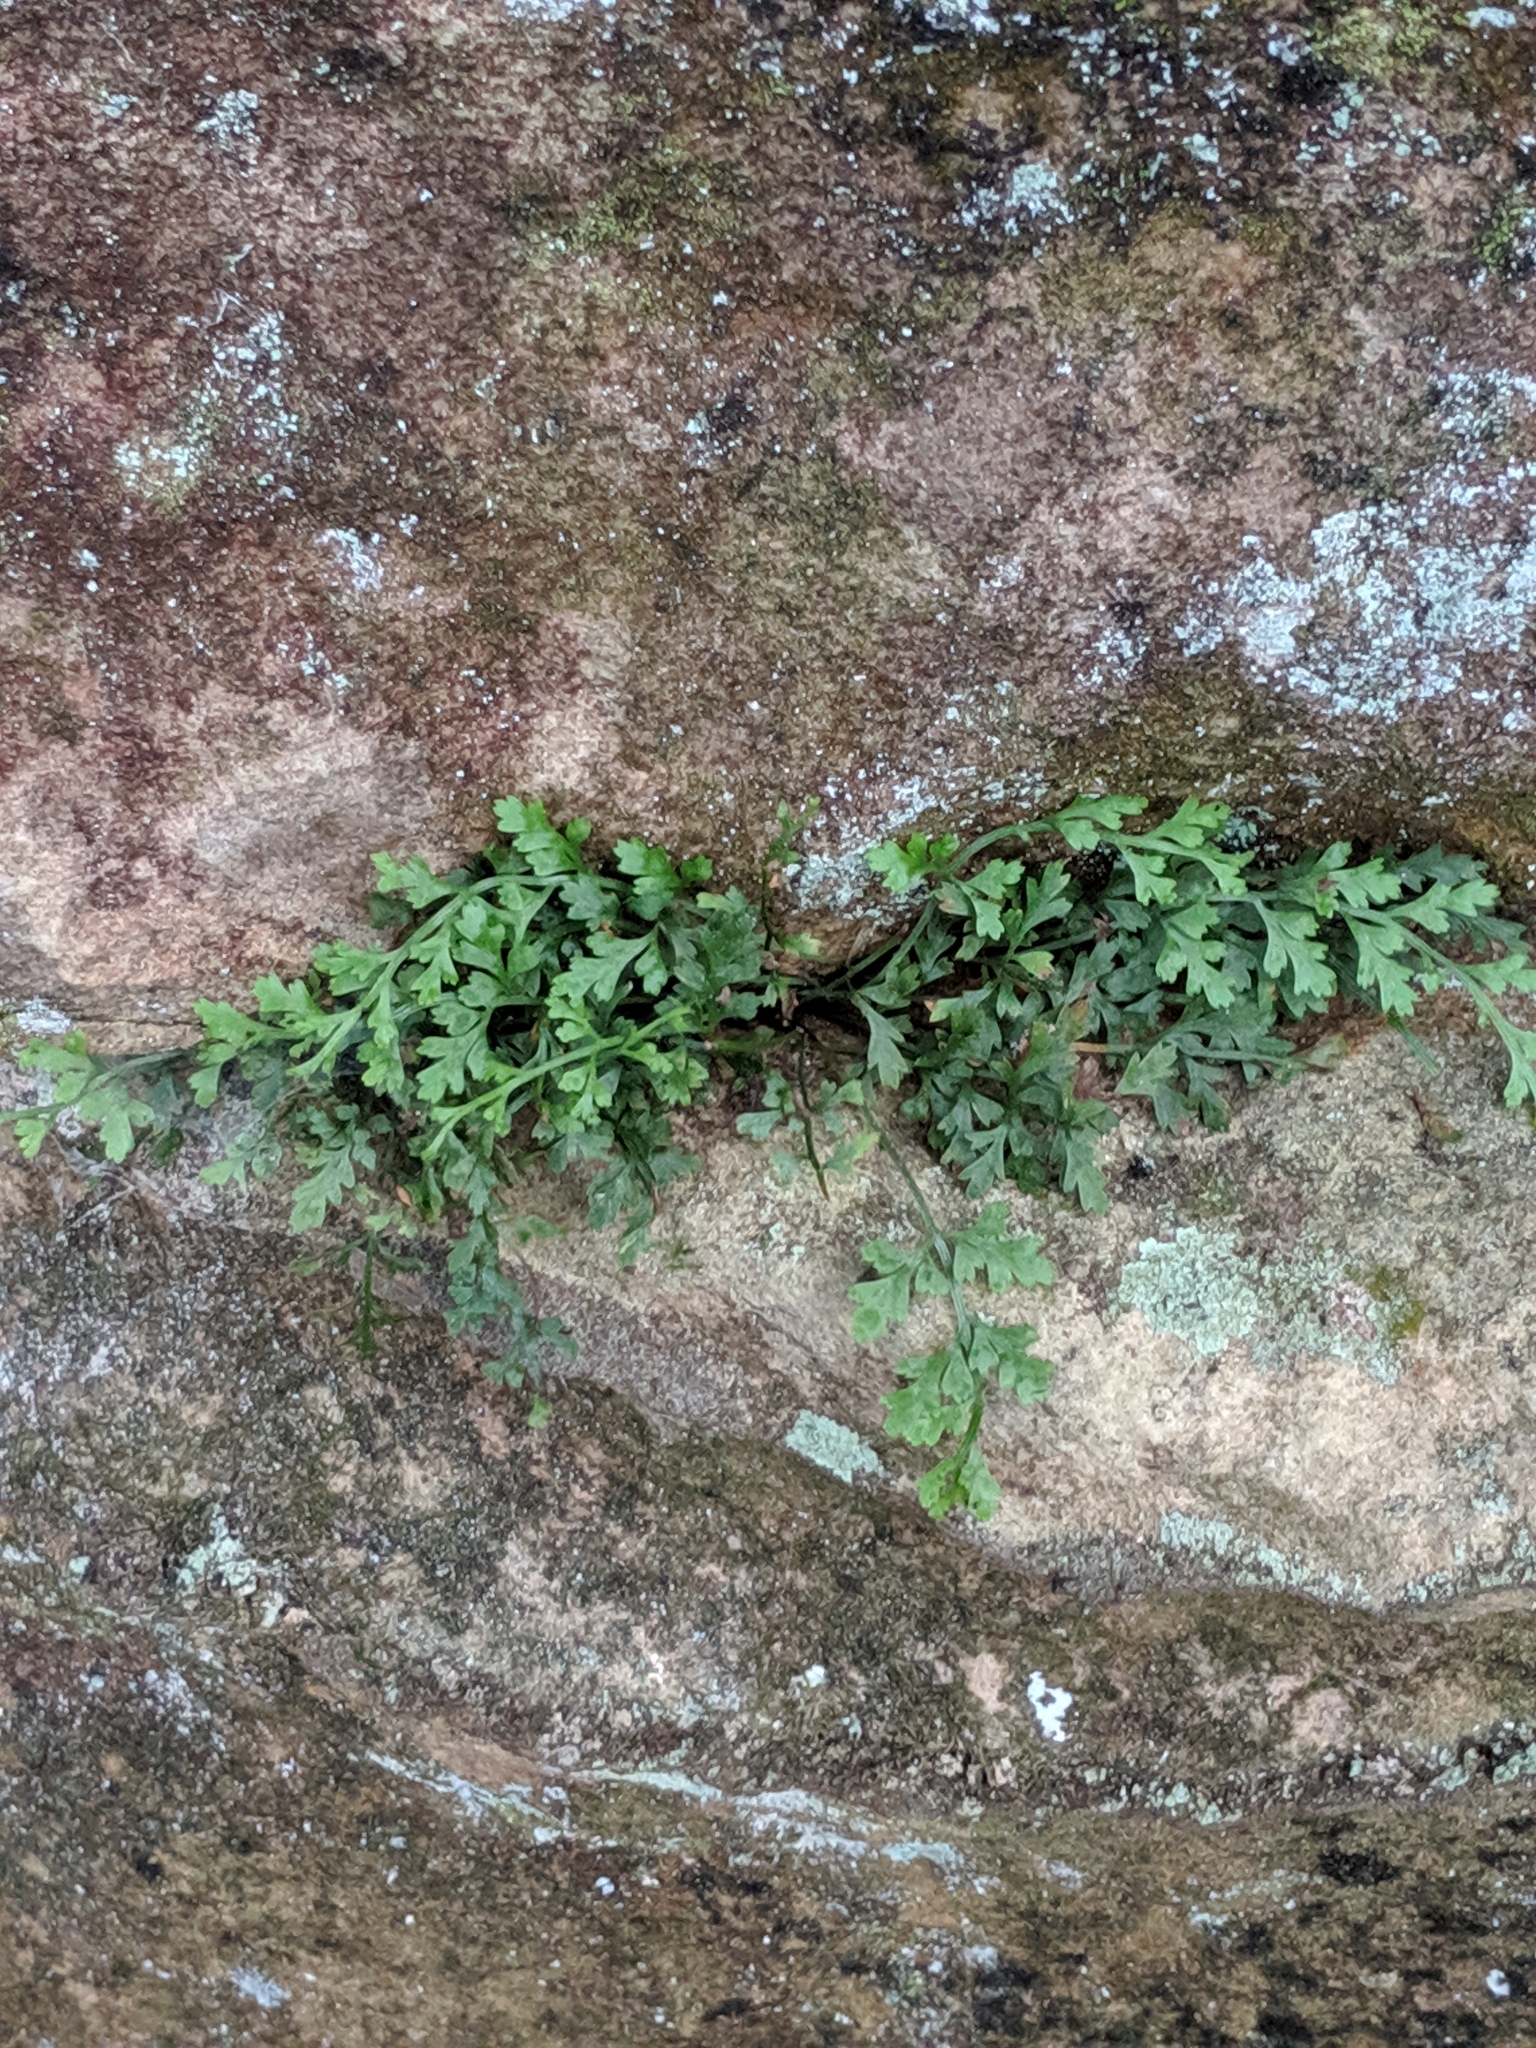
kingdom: Plantae
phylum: Tracheophyta
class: Polypodiopsida
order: Polypodiales
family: Aspleniaceae
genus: Asplenium
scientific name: Asplenium montanum
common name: Mountain spleenwort
